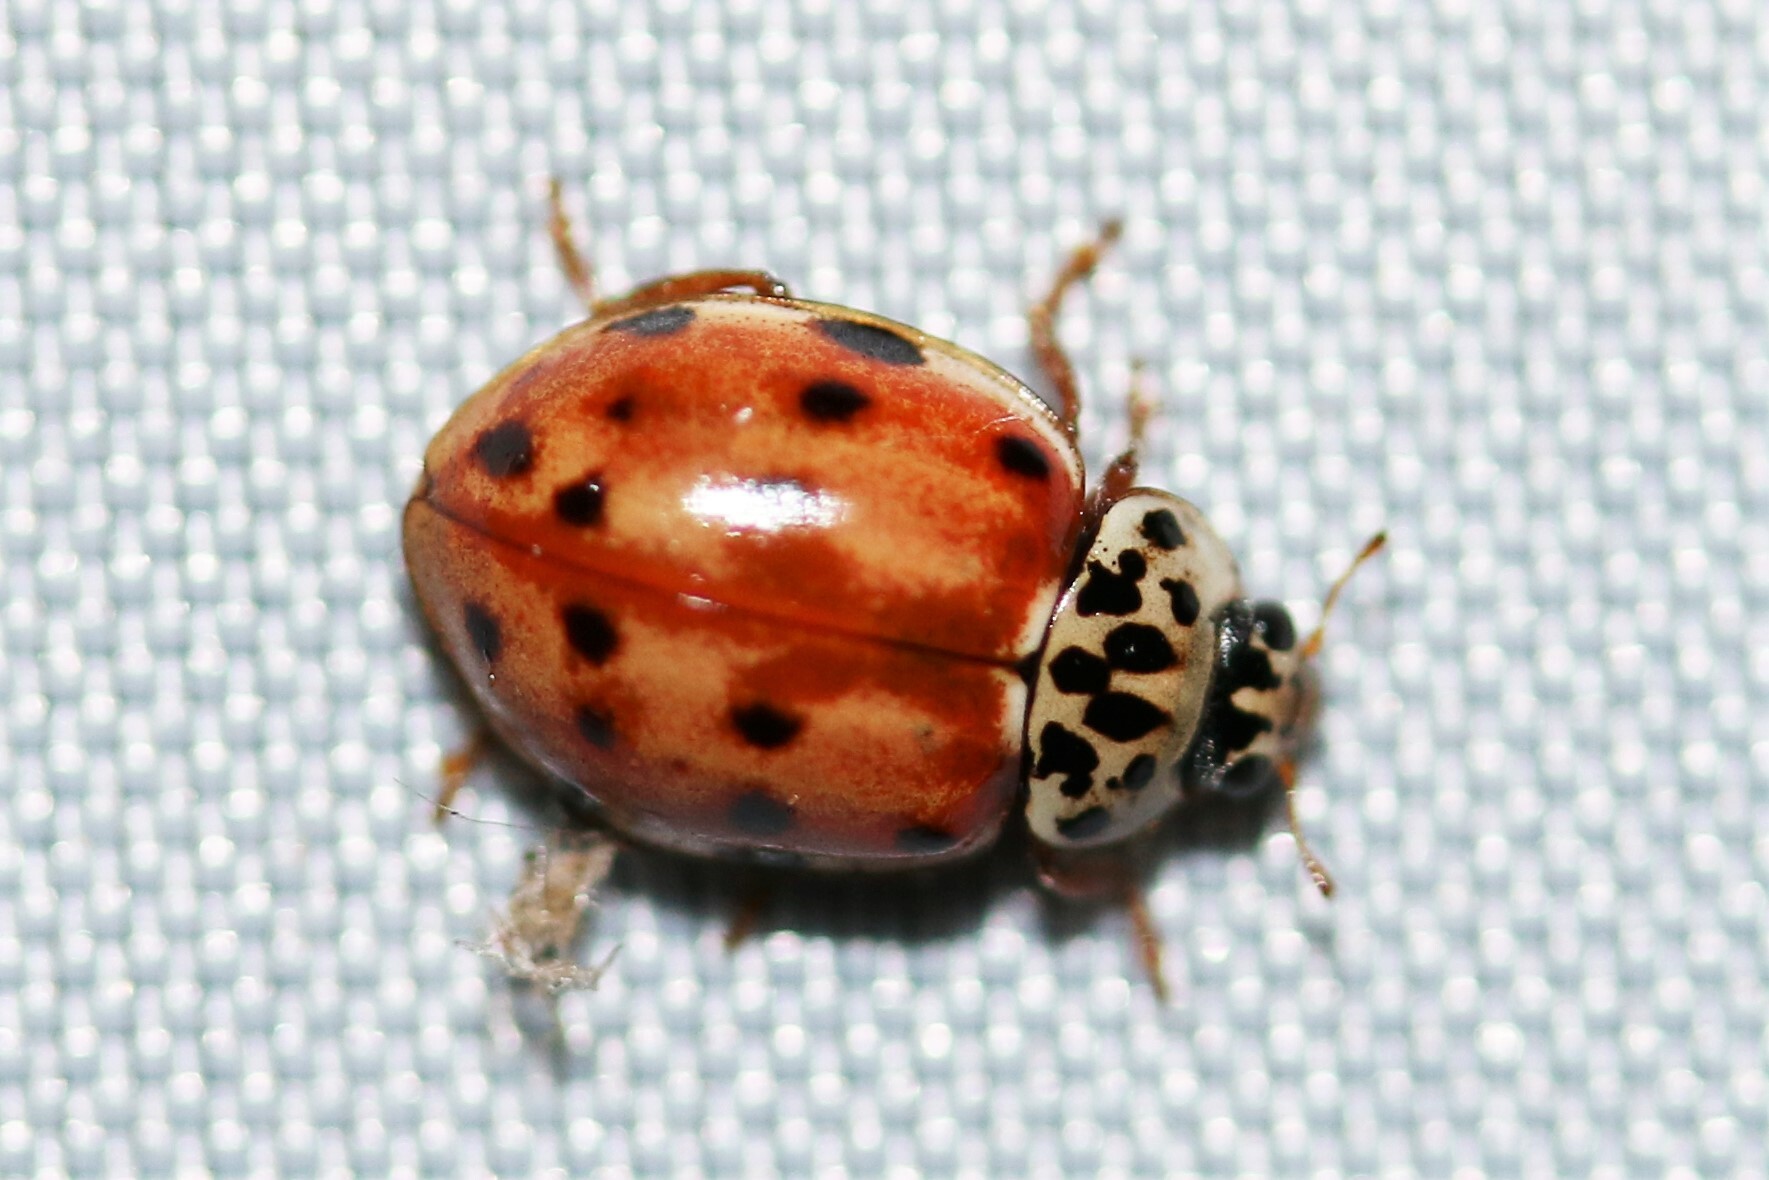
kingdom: Animalia
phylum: Arthropoda
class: Insecta
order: Coleoptera
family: Coccinellidae
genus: Harmonia
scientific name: Harmonia quadripunctata
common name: Cream-streaked ladybird
